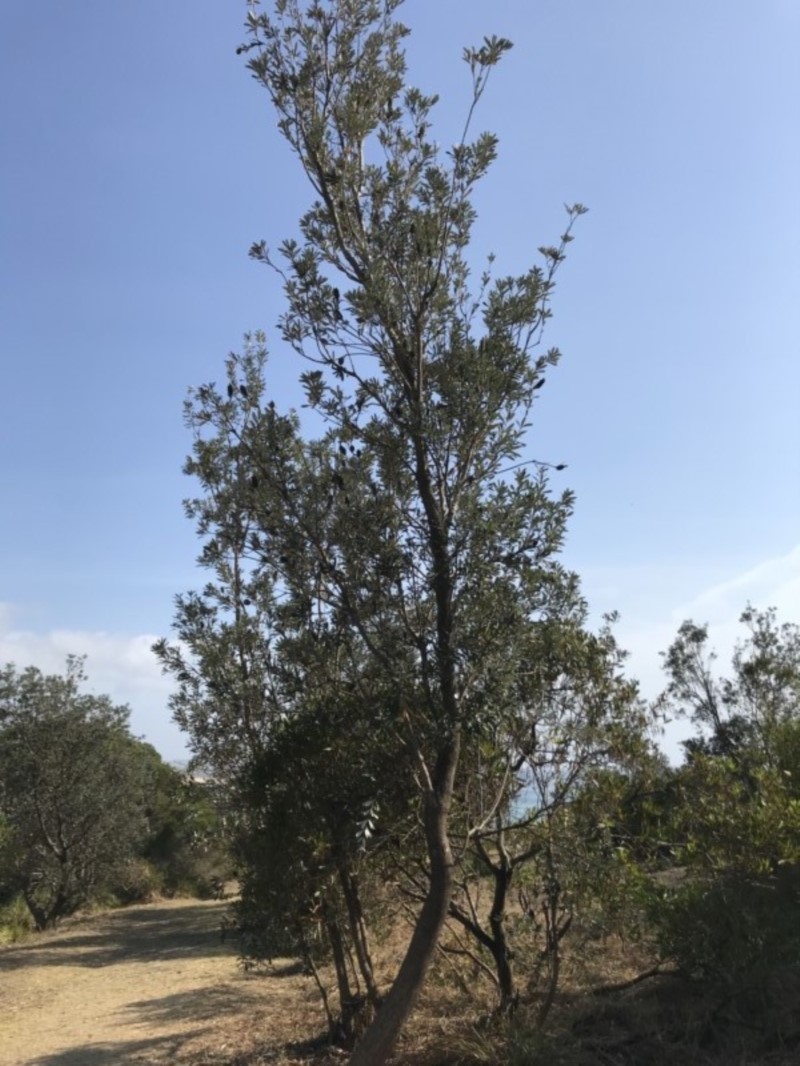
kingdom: Plantae
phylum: Tracheophyta
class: Magnoliopsida
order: Proteales
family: Proteaceae
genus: Banksia
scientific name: Banksia integrifolia
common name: White-honeysuckle
